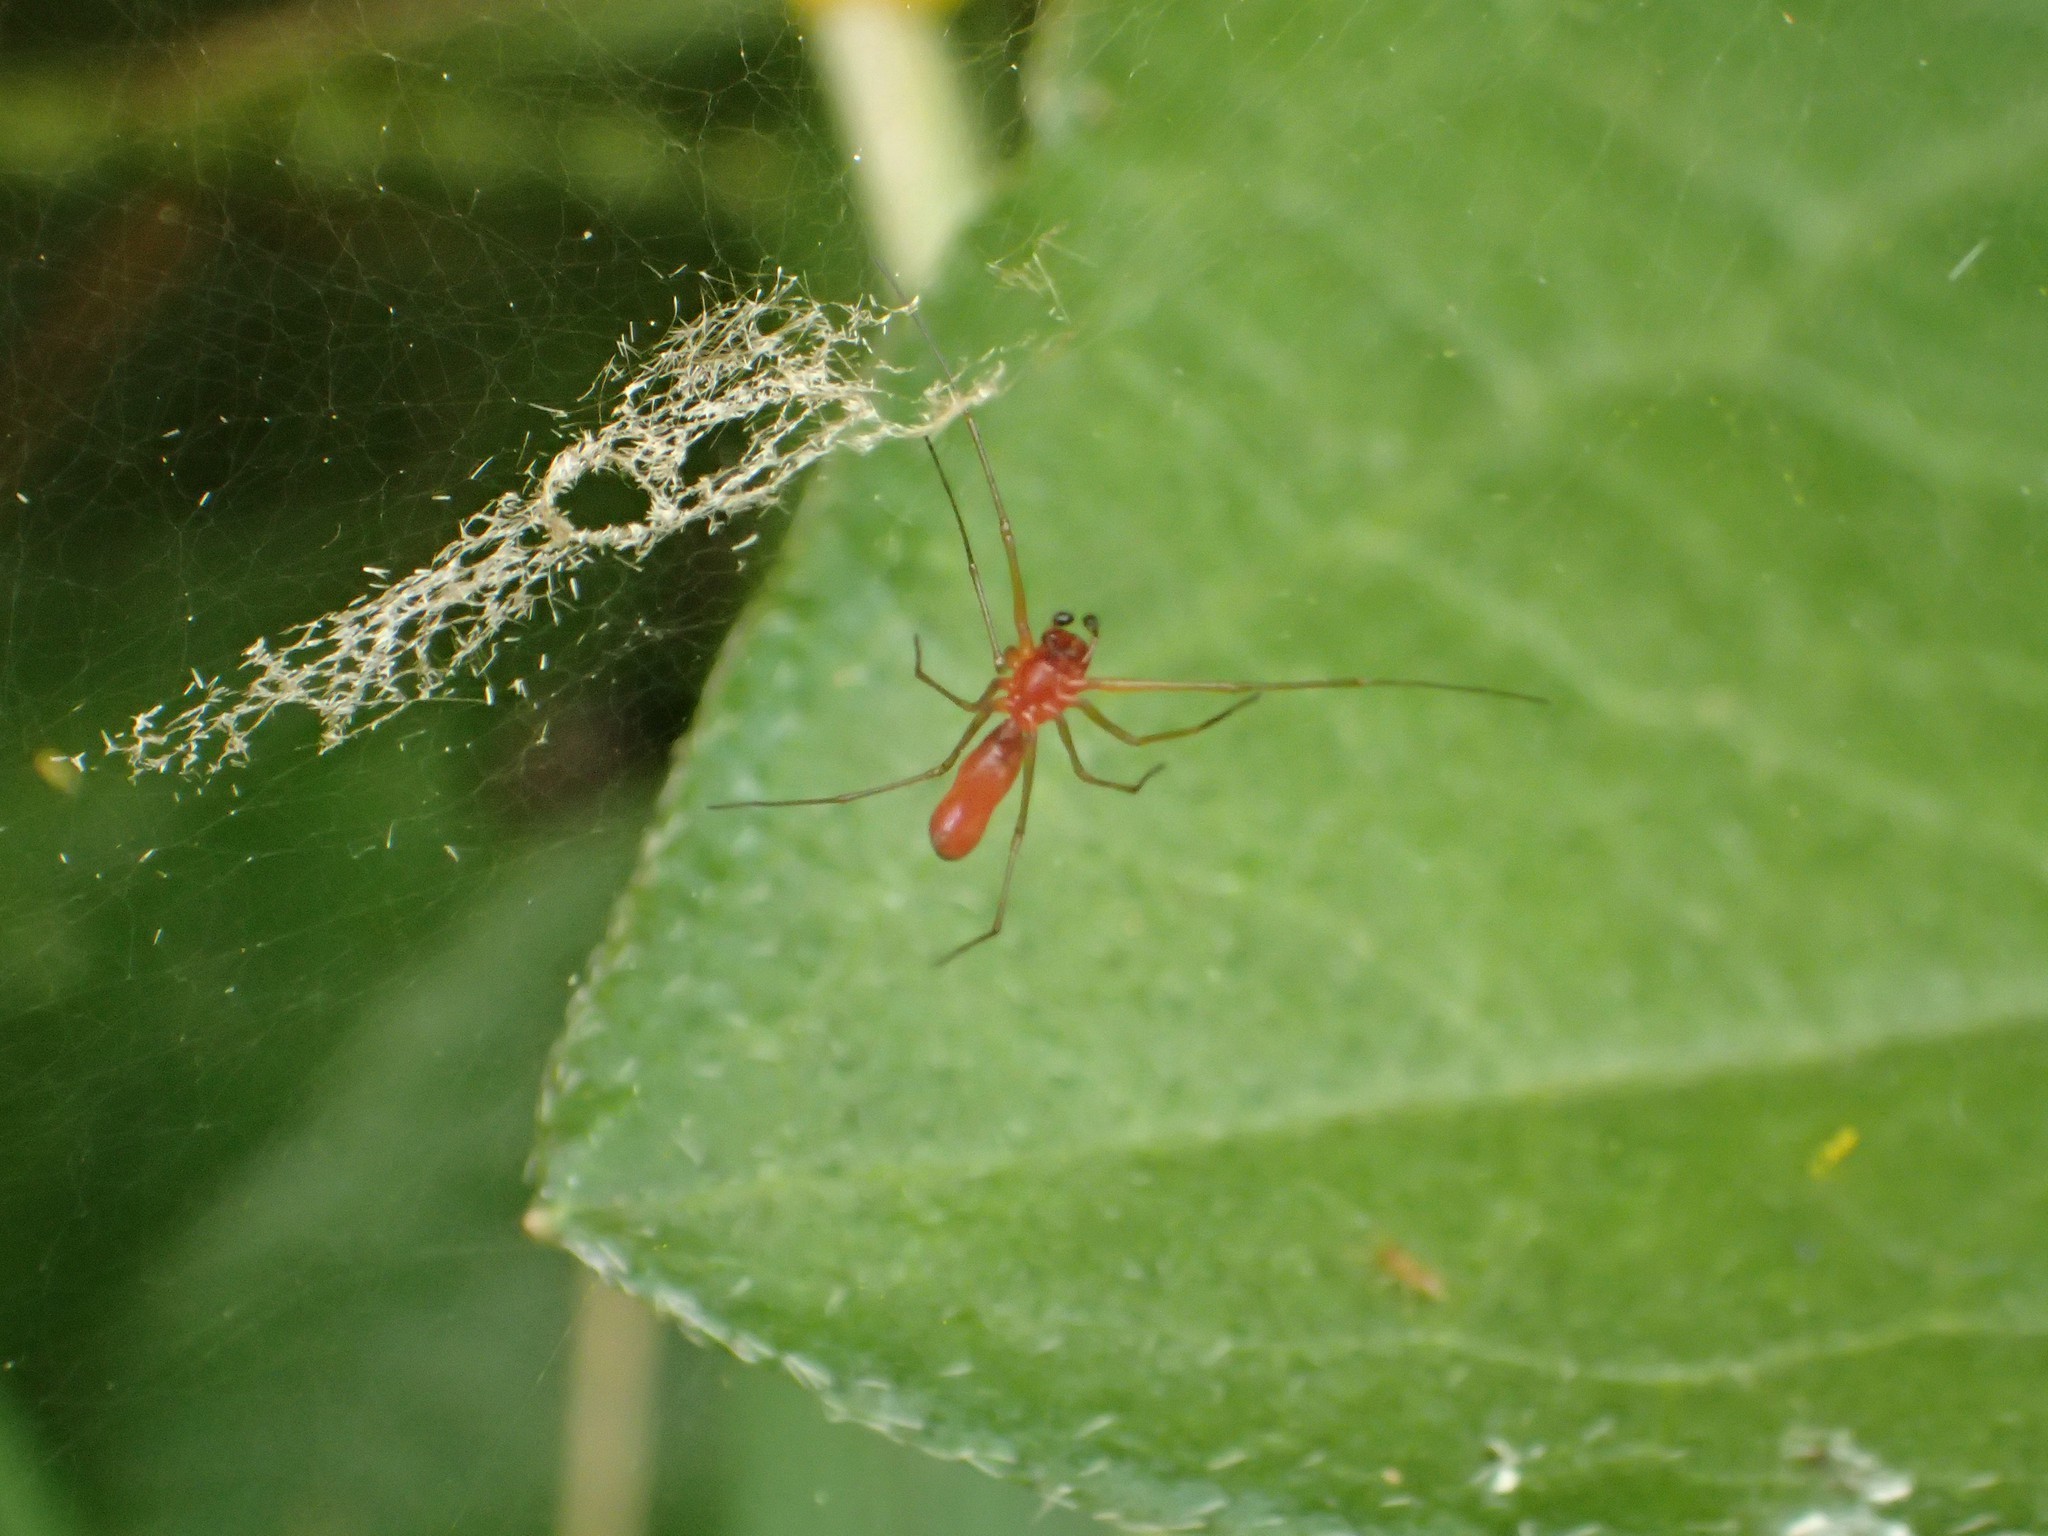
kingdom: Animalia
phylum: Arthropoda
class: Arachnida
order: Araneae
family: Linyphiidae
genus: Florinda
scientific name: Florinda coccinea
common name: Black-tailed red sheetweaver
